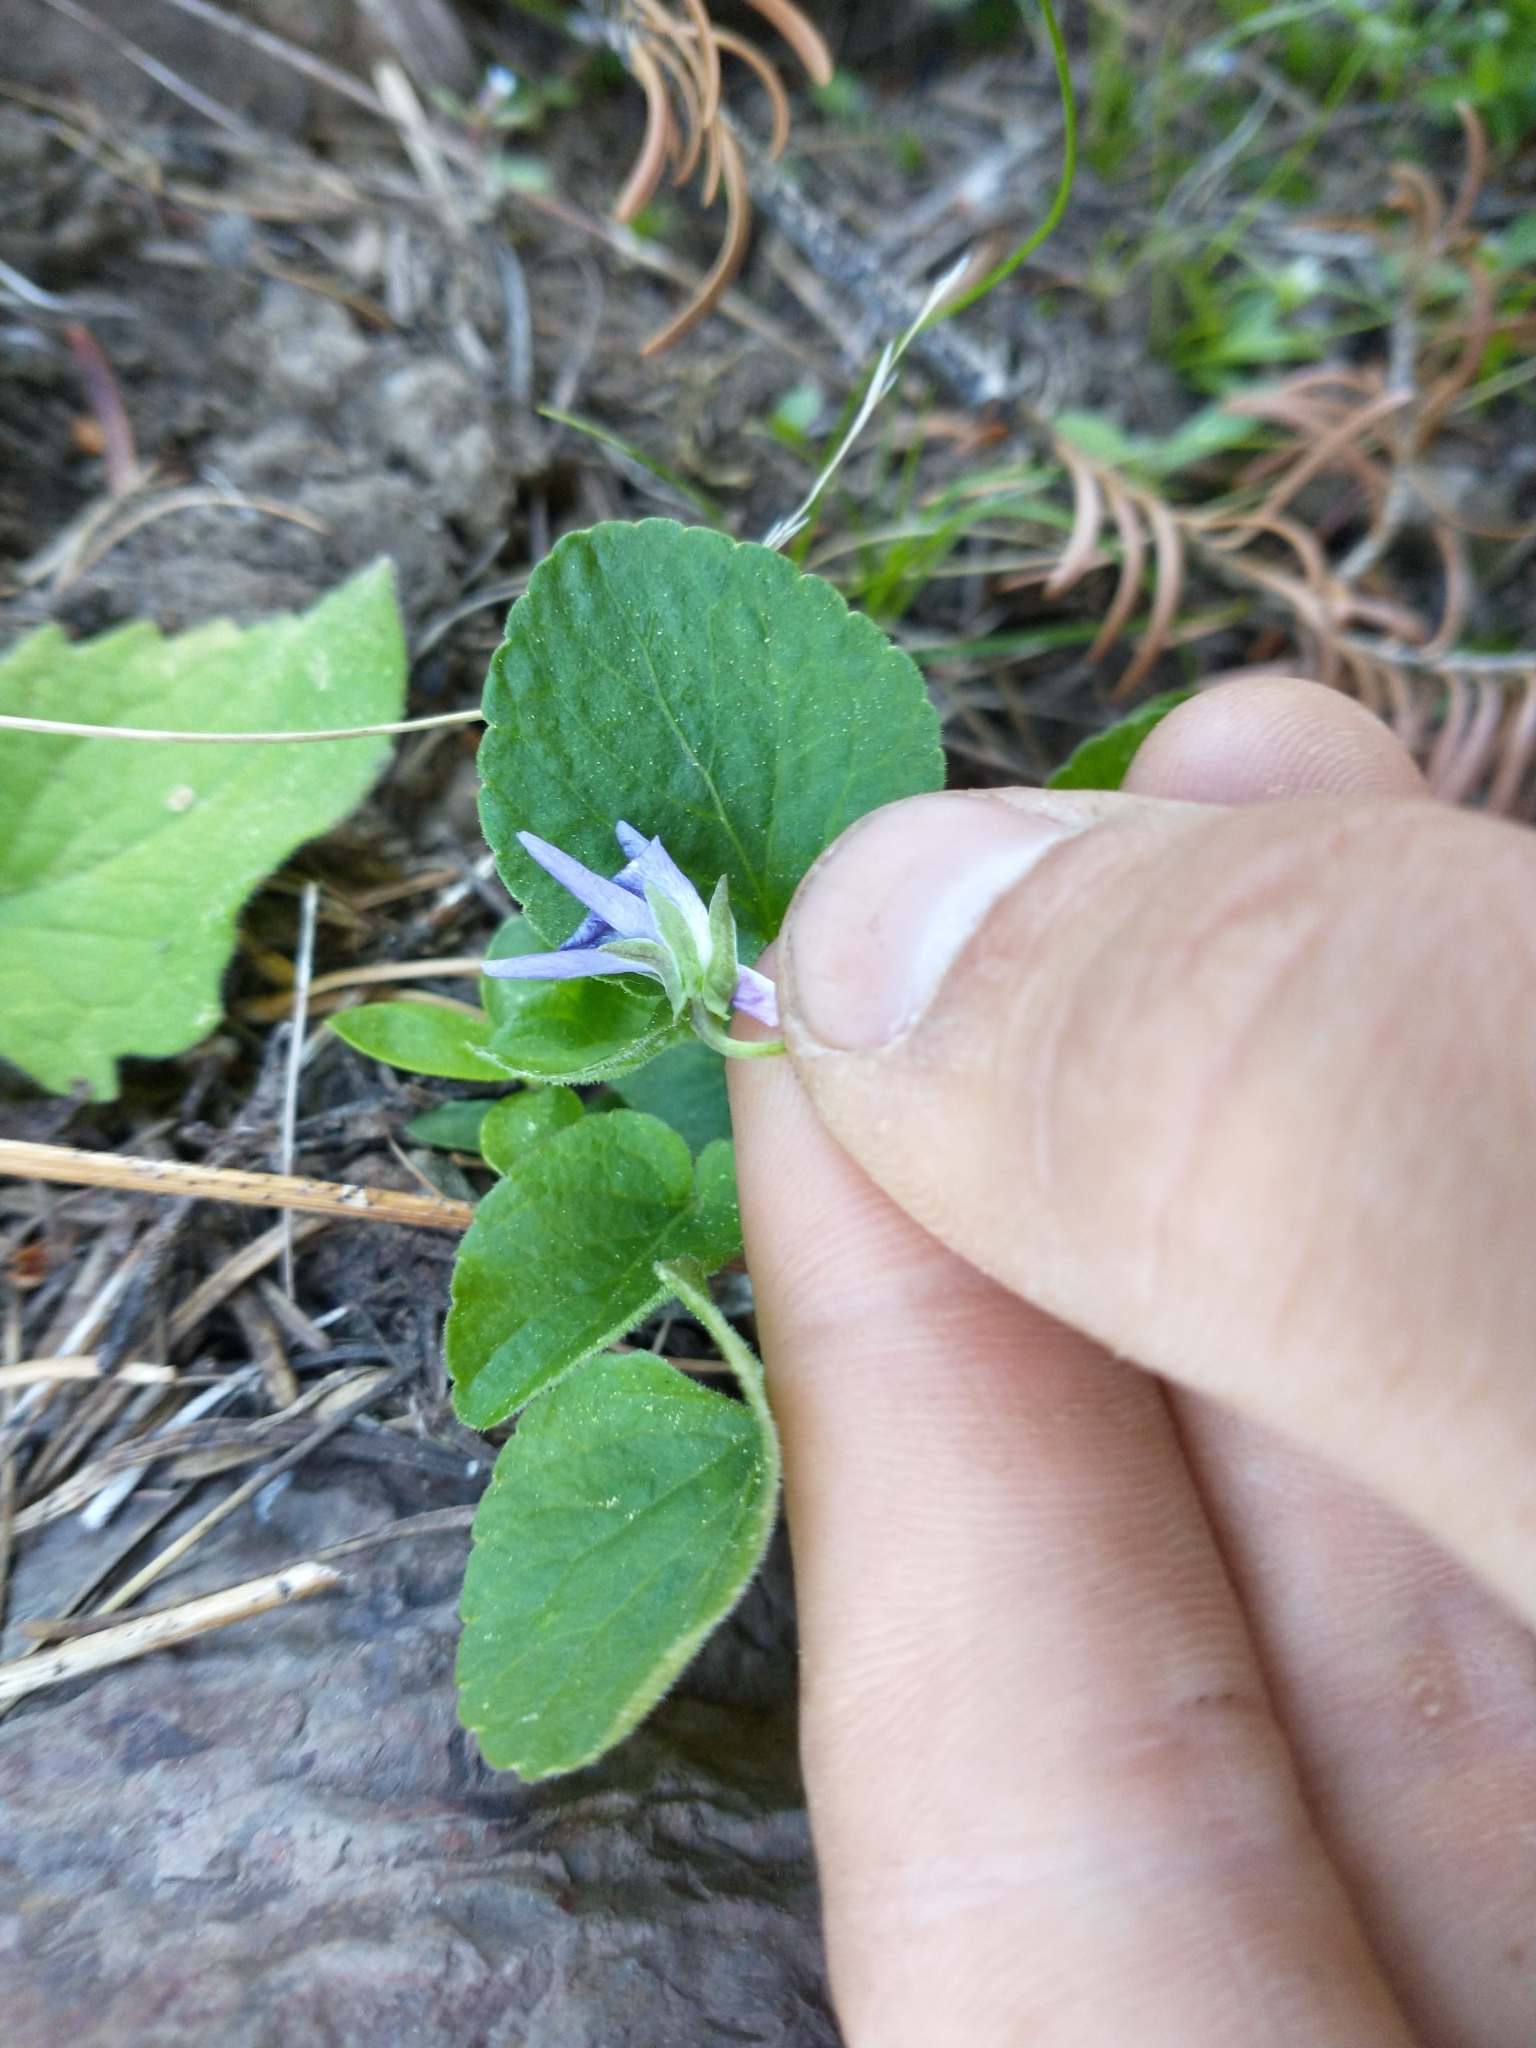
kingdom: Plantae
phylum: Tracheophyta
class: Magnoliopsida
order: Malpighiales
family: Violaceae
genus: Viola
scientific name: Viola adunca
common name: Sand violet
